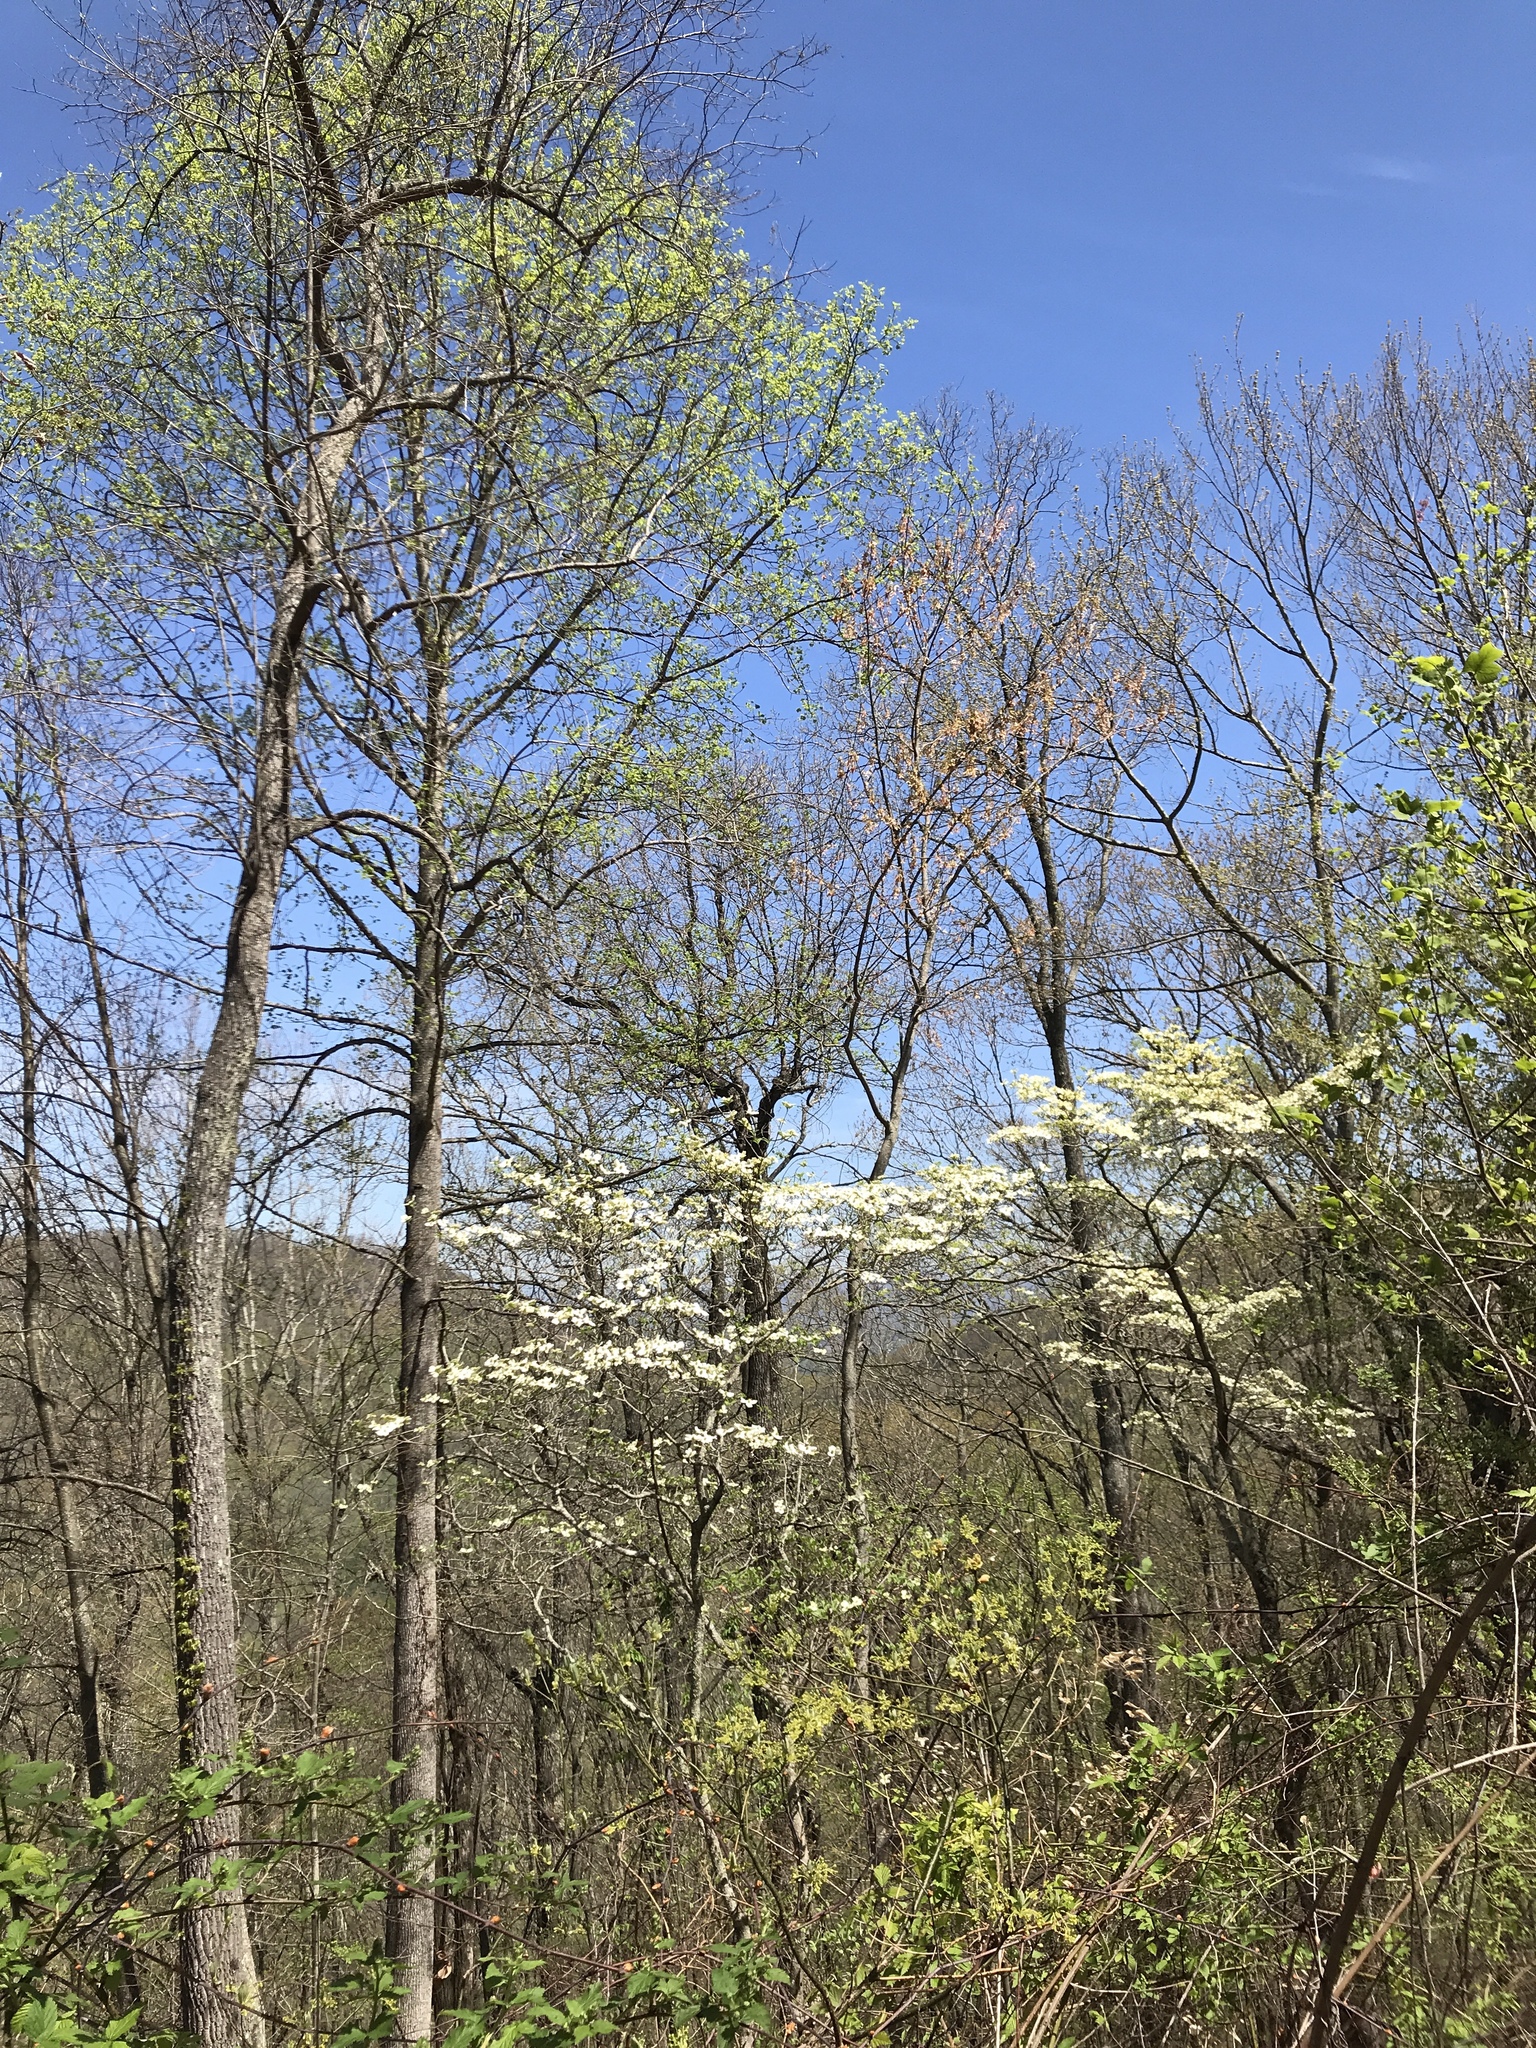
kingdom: Plantae
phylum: Tracheophyta
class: Magnoliopsida
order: Cornales
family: Cornaceae
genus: Cornus
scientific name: Cornus florida
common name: Flowering dogwood
